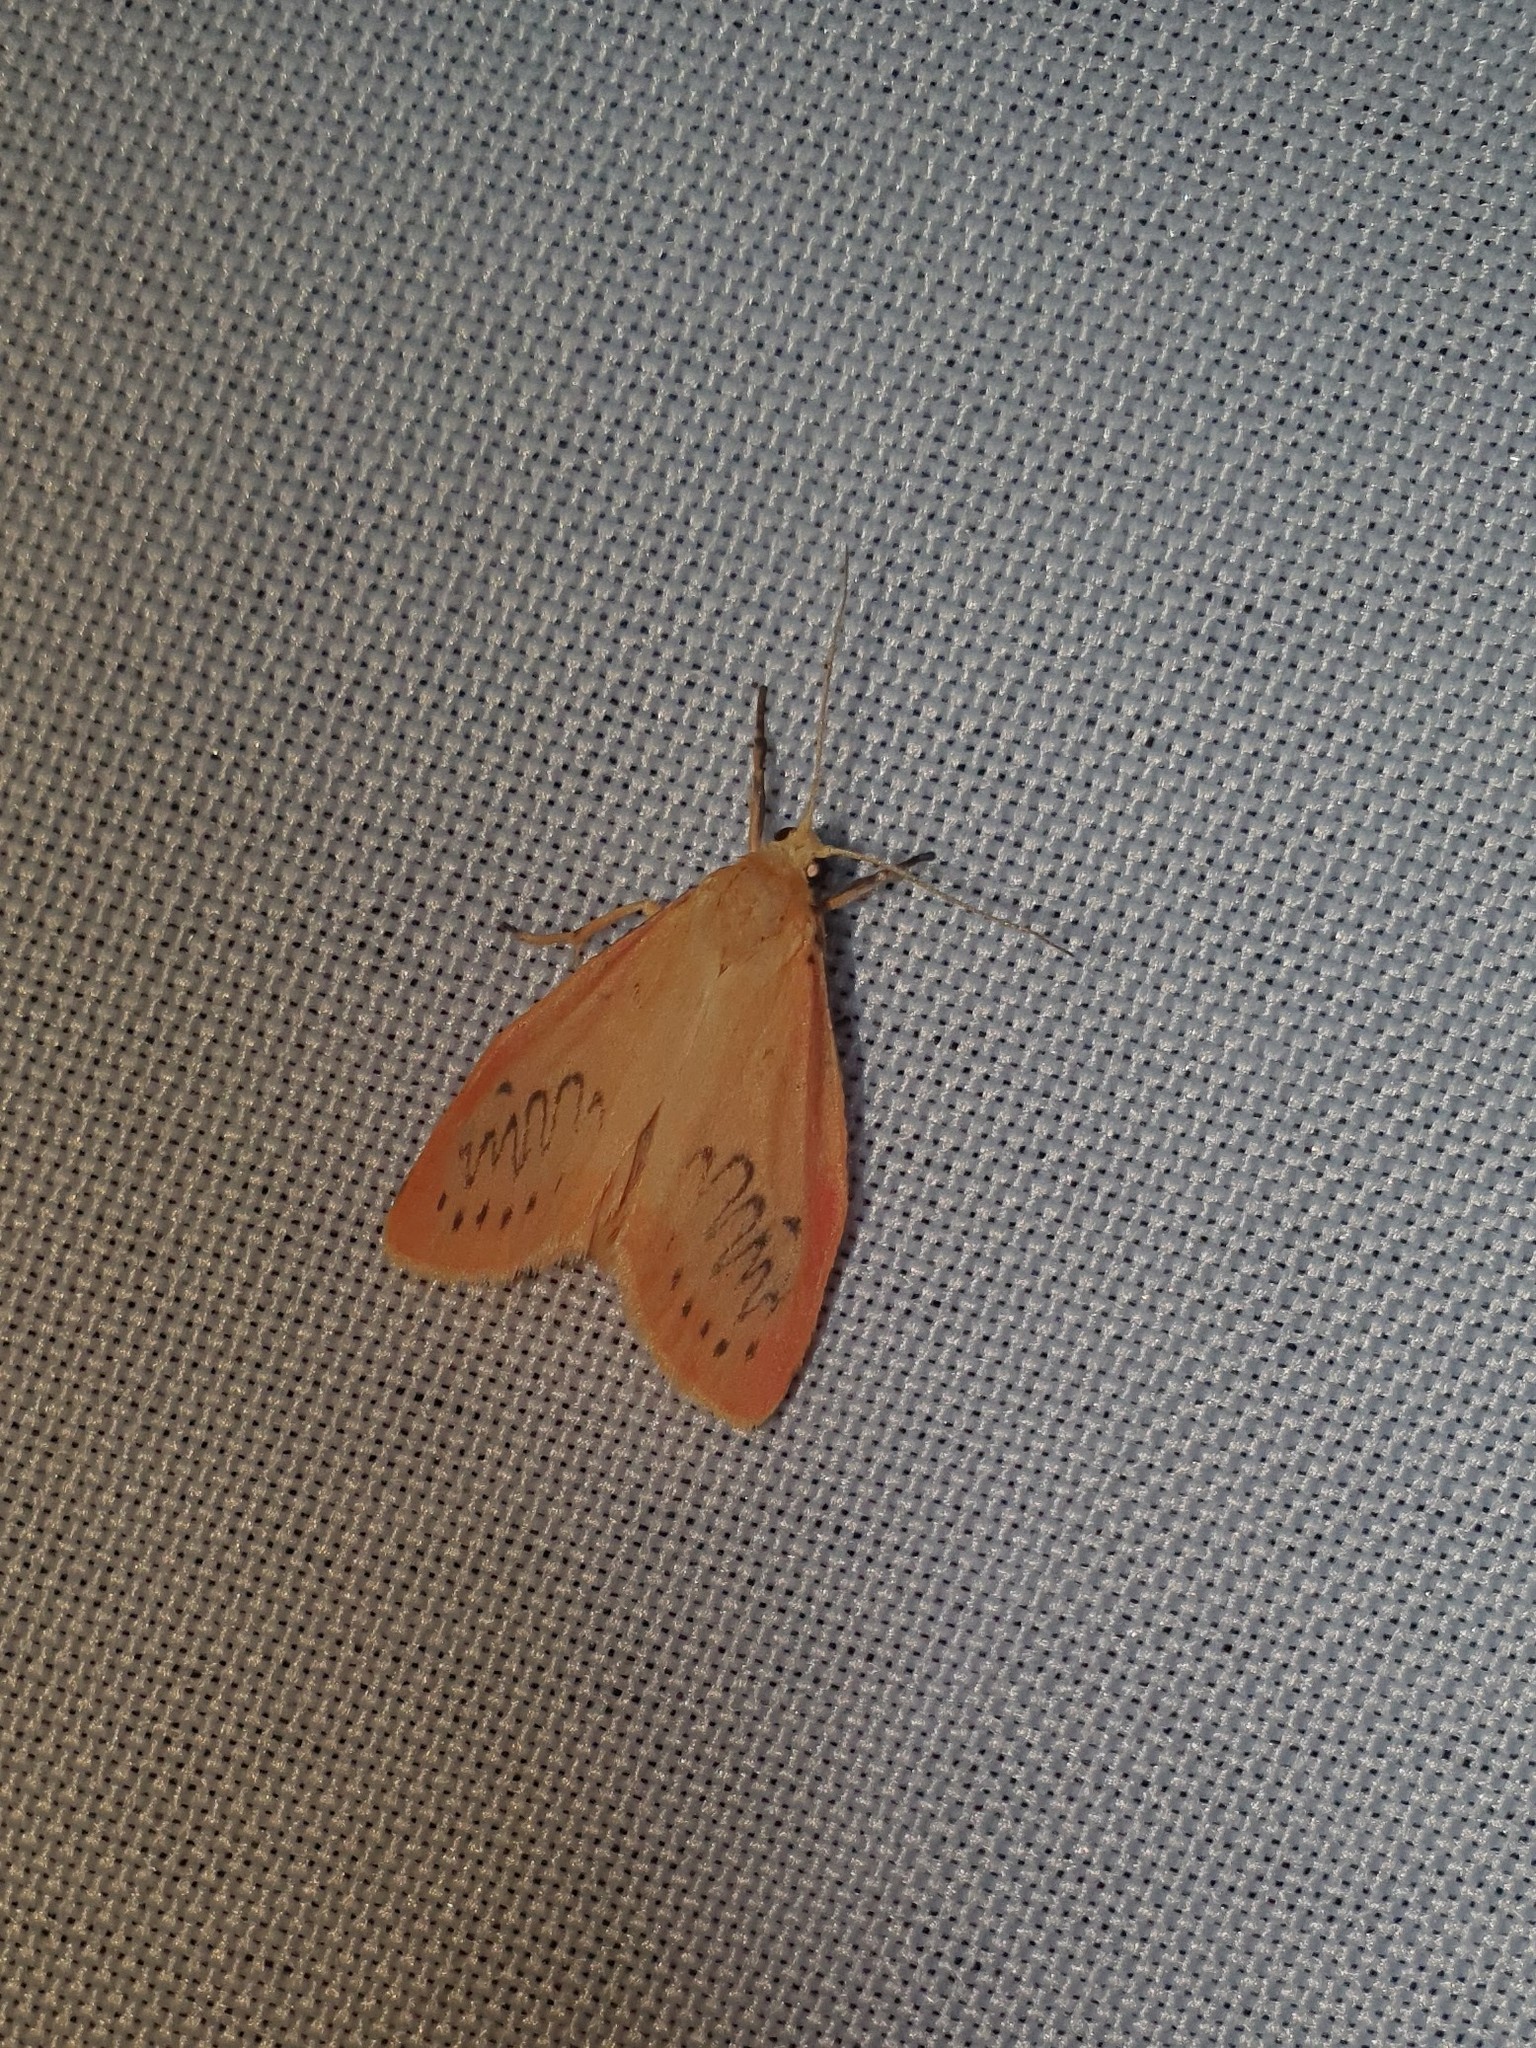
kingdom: Animalia
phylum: Arthropoda
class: Insecta
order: Lepidoptera
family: Erebidae
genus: Miltochrista
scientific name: Miltochrista miniata
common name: Rosy footman
